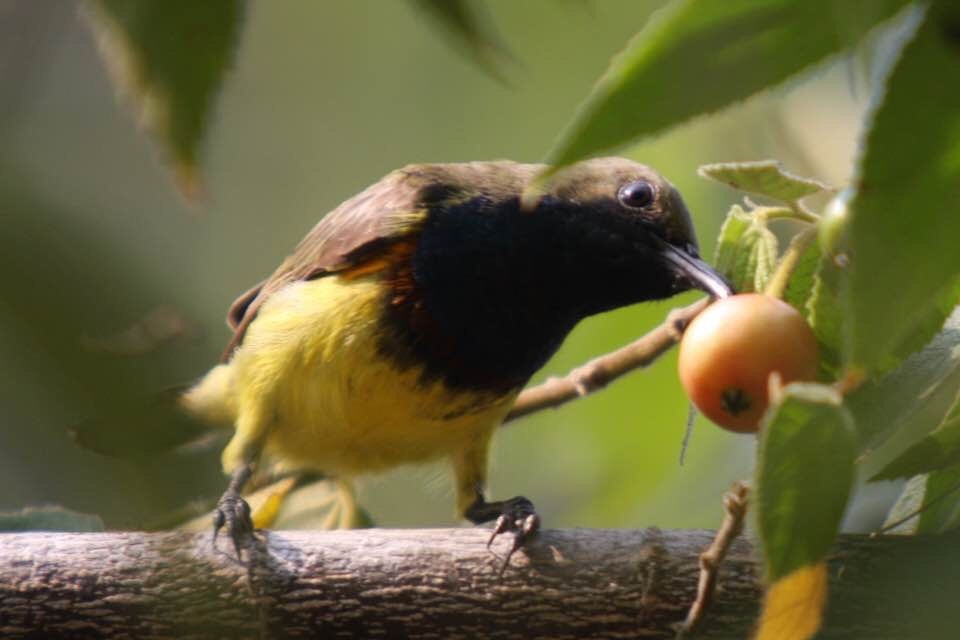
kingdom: Animalia
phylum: Chordata
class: Aves
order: Passeriformes
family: Nectariniidae
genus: Cinnyris
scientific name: Cinnyris
